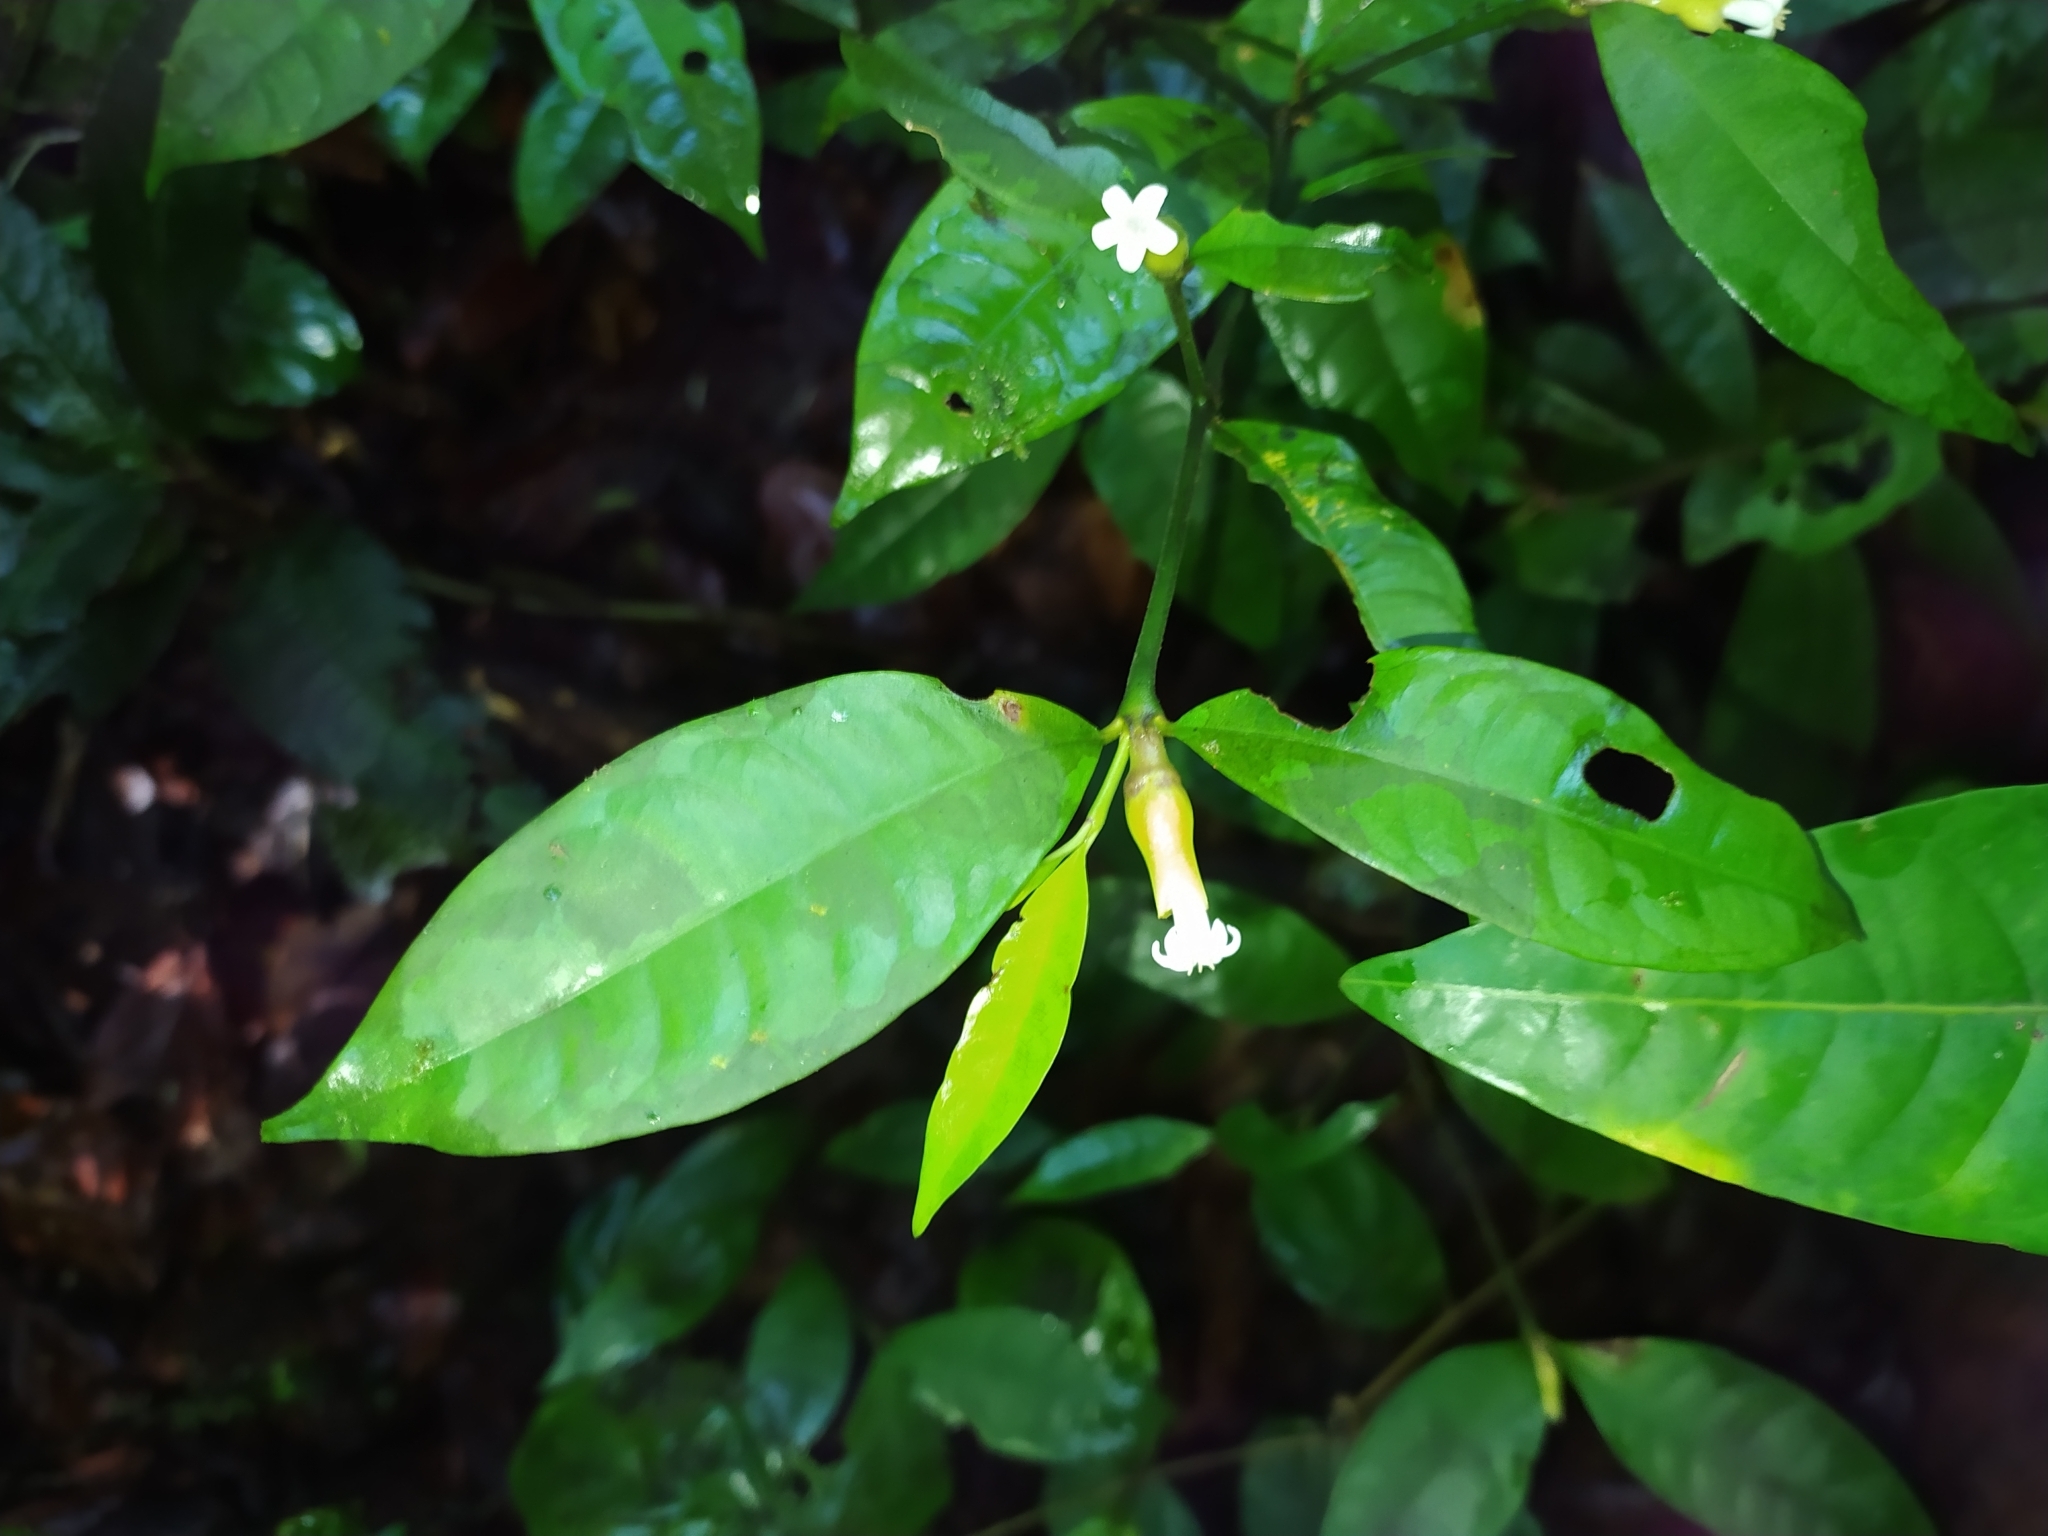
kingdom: Plantae
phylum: Tracheophyta
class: Magnoliopsida
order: Gentianales
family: Rubiaceae
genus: Palicourea
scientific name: Palicourea oblonga
